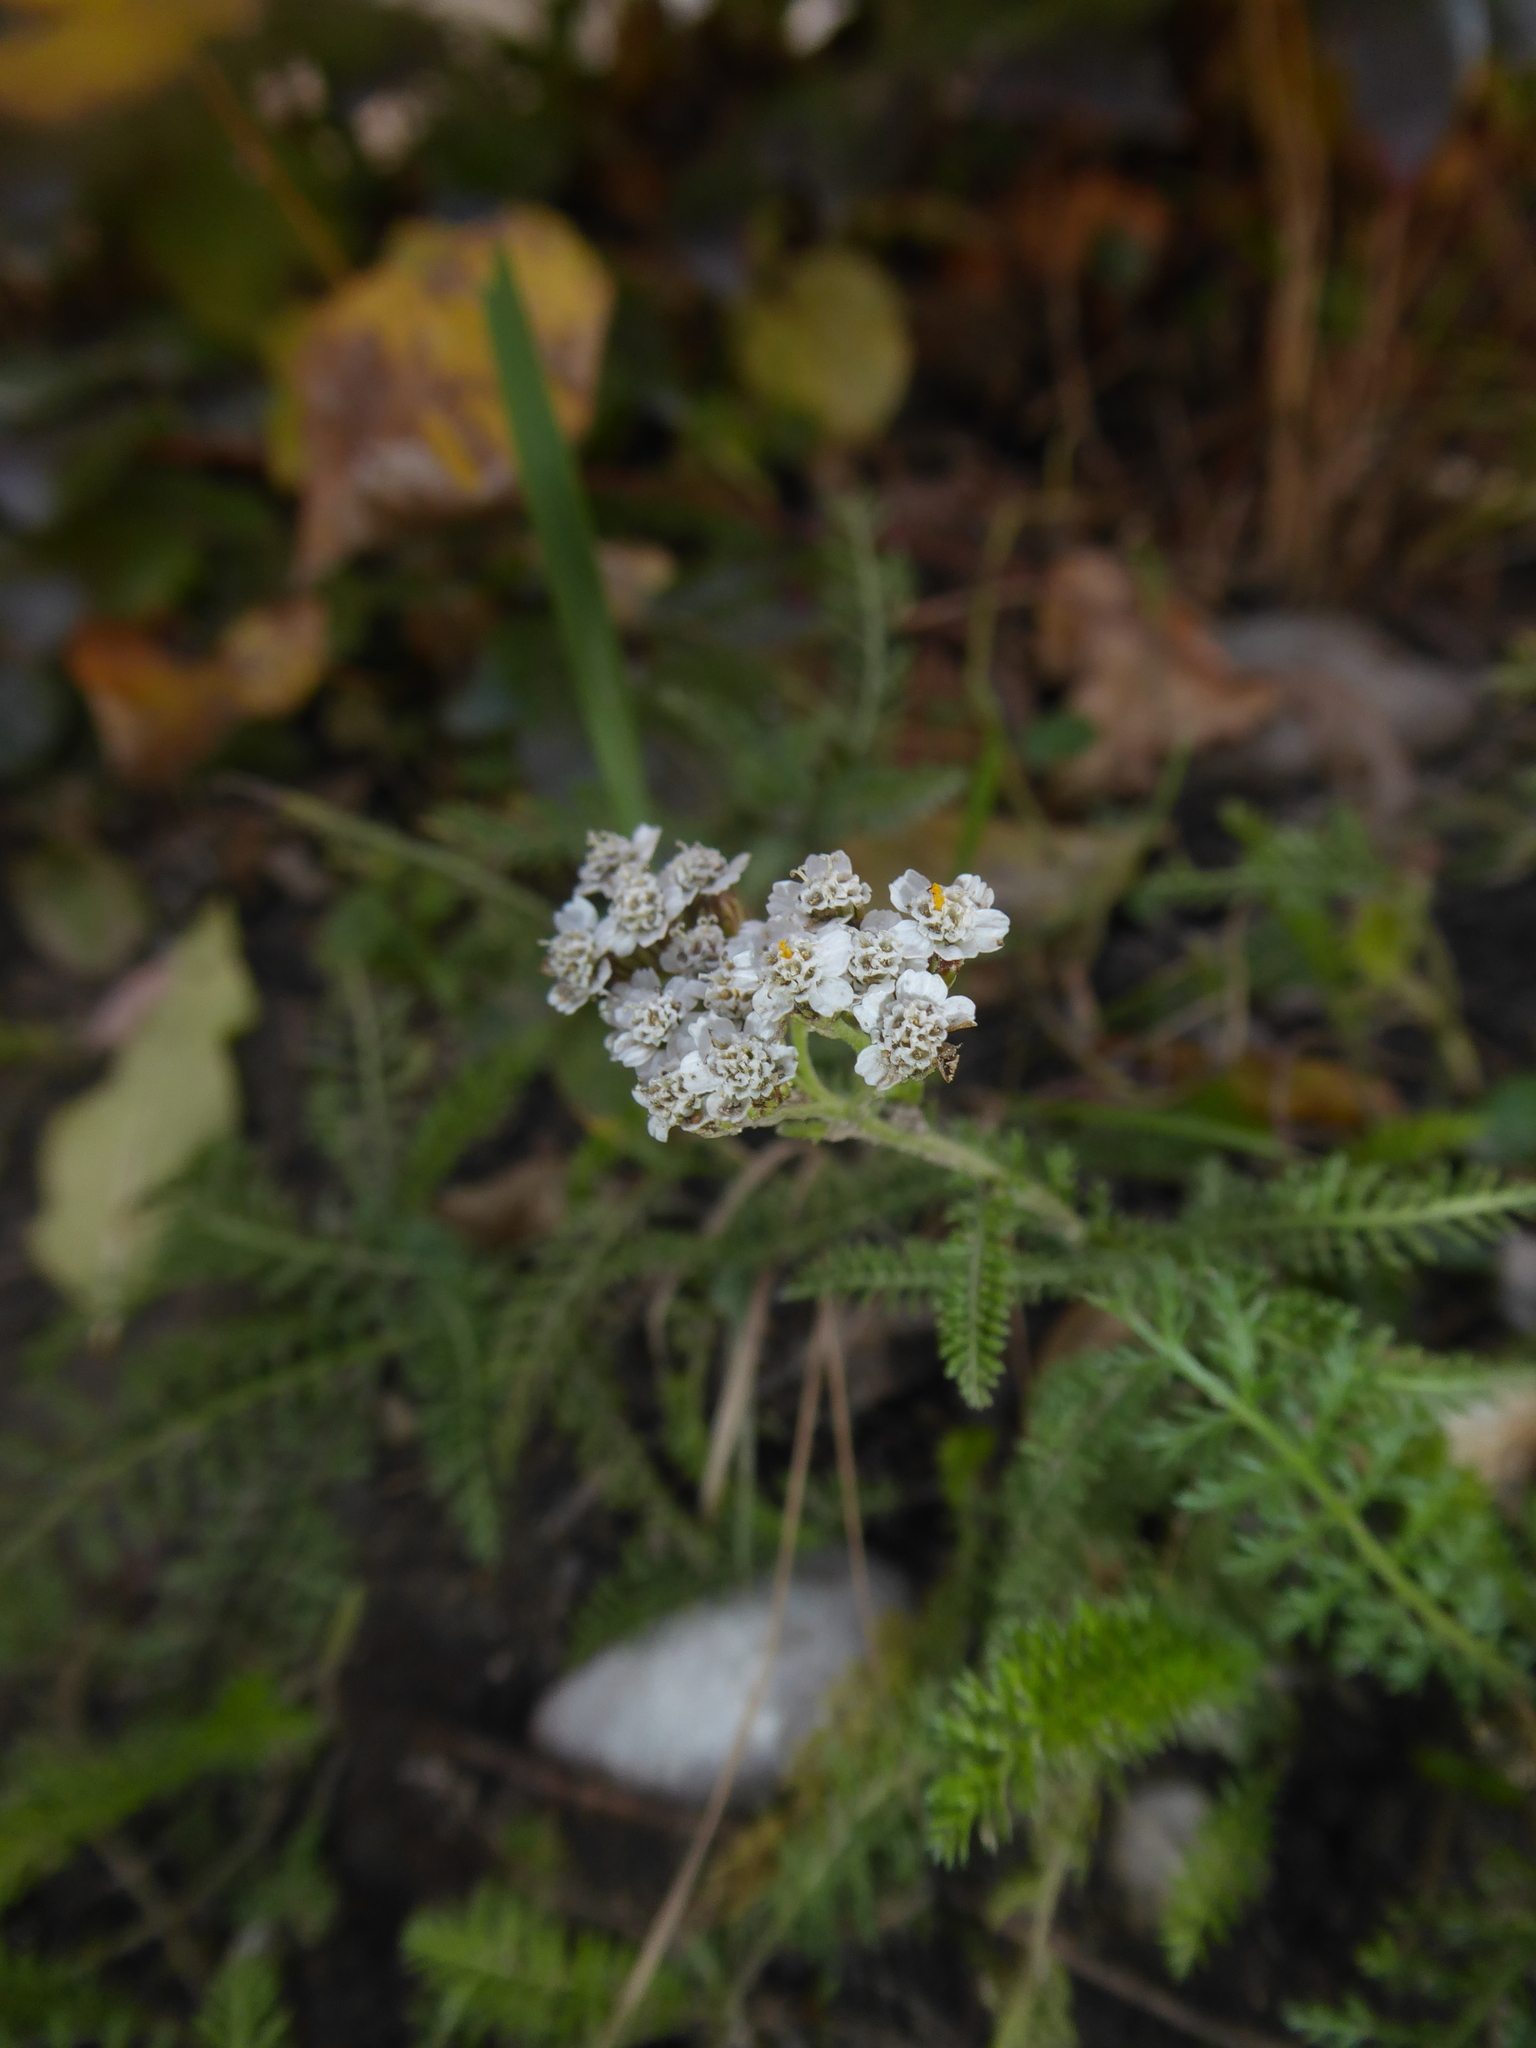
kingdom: Plantae
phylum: Tracheophyta
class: Magnoliopsida
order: Asterales
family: Asteraceae
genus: Achillea
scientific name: Achillea
